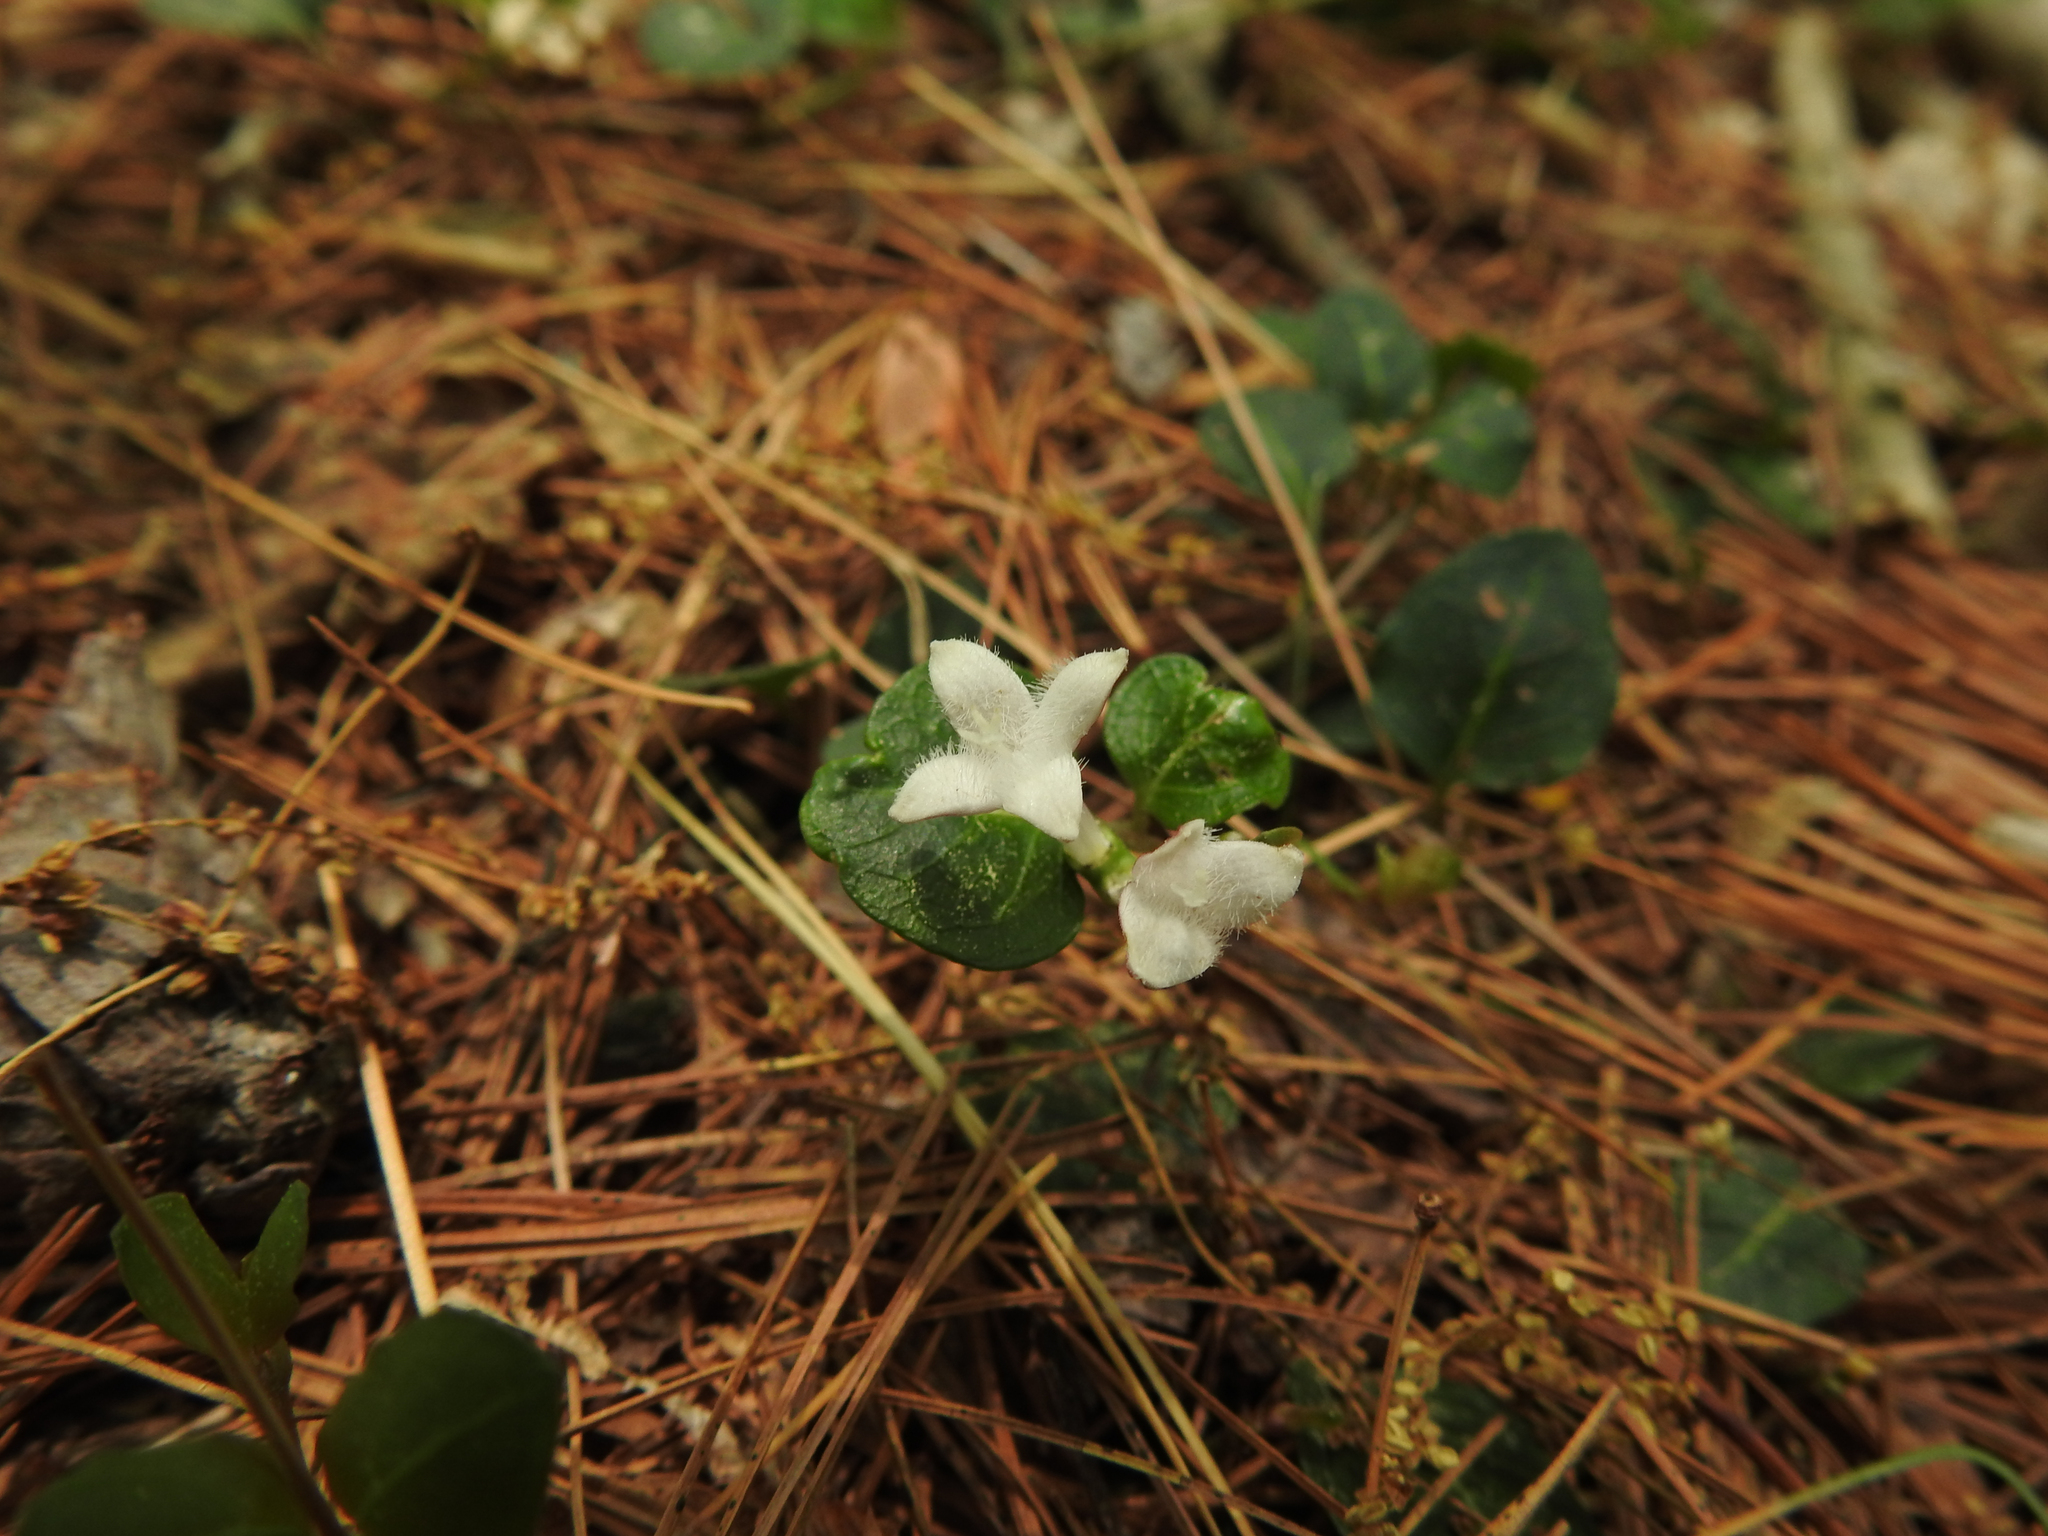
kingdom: Plantae
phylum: Tracheophyta
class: Magnoliopsida
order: Gentianales
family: Rubiaceae
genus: Mitchella
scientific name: Mitchella repens
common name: Partridge-berry
